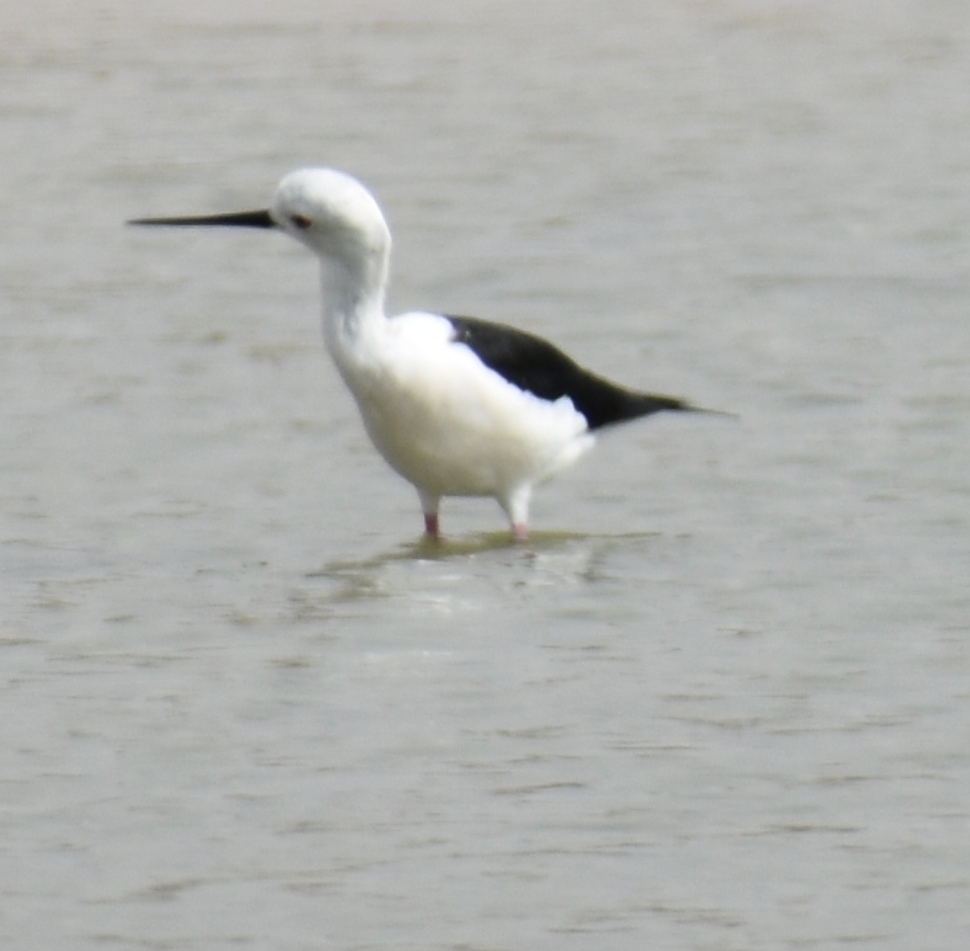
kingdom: Animalia
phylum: Chordata
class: Aves
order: Charadriiformes
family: Recurvirostridae
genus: Himantopus
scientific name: Himantopus himantopus
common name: Black-winged stilt
